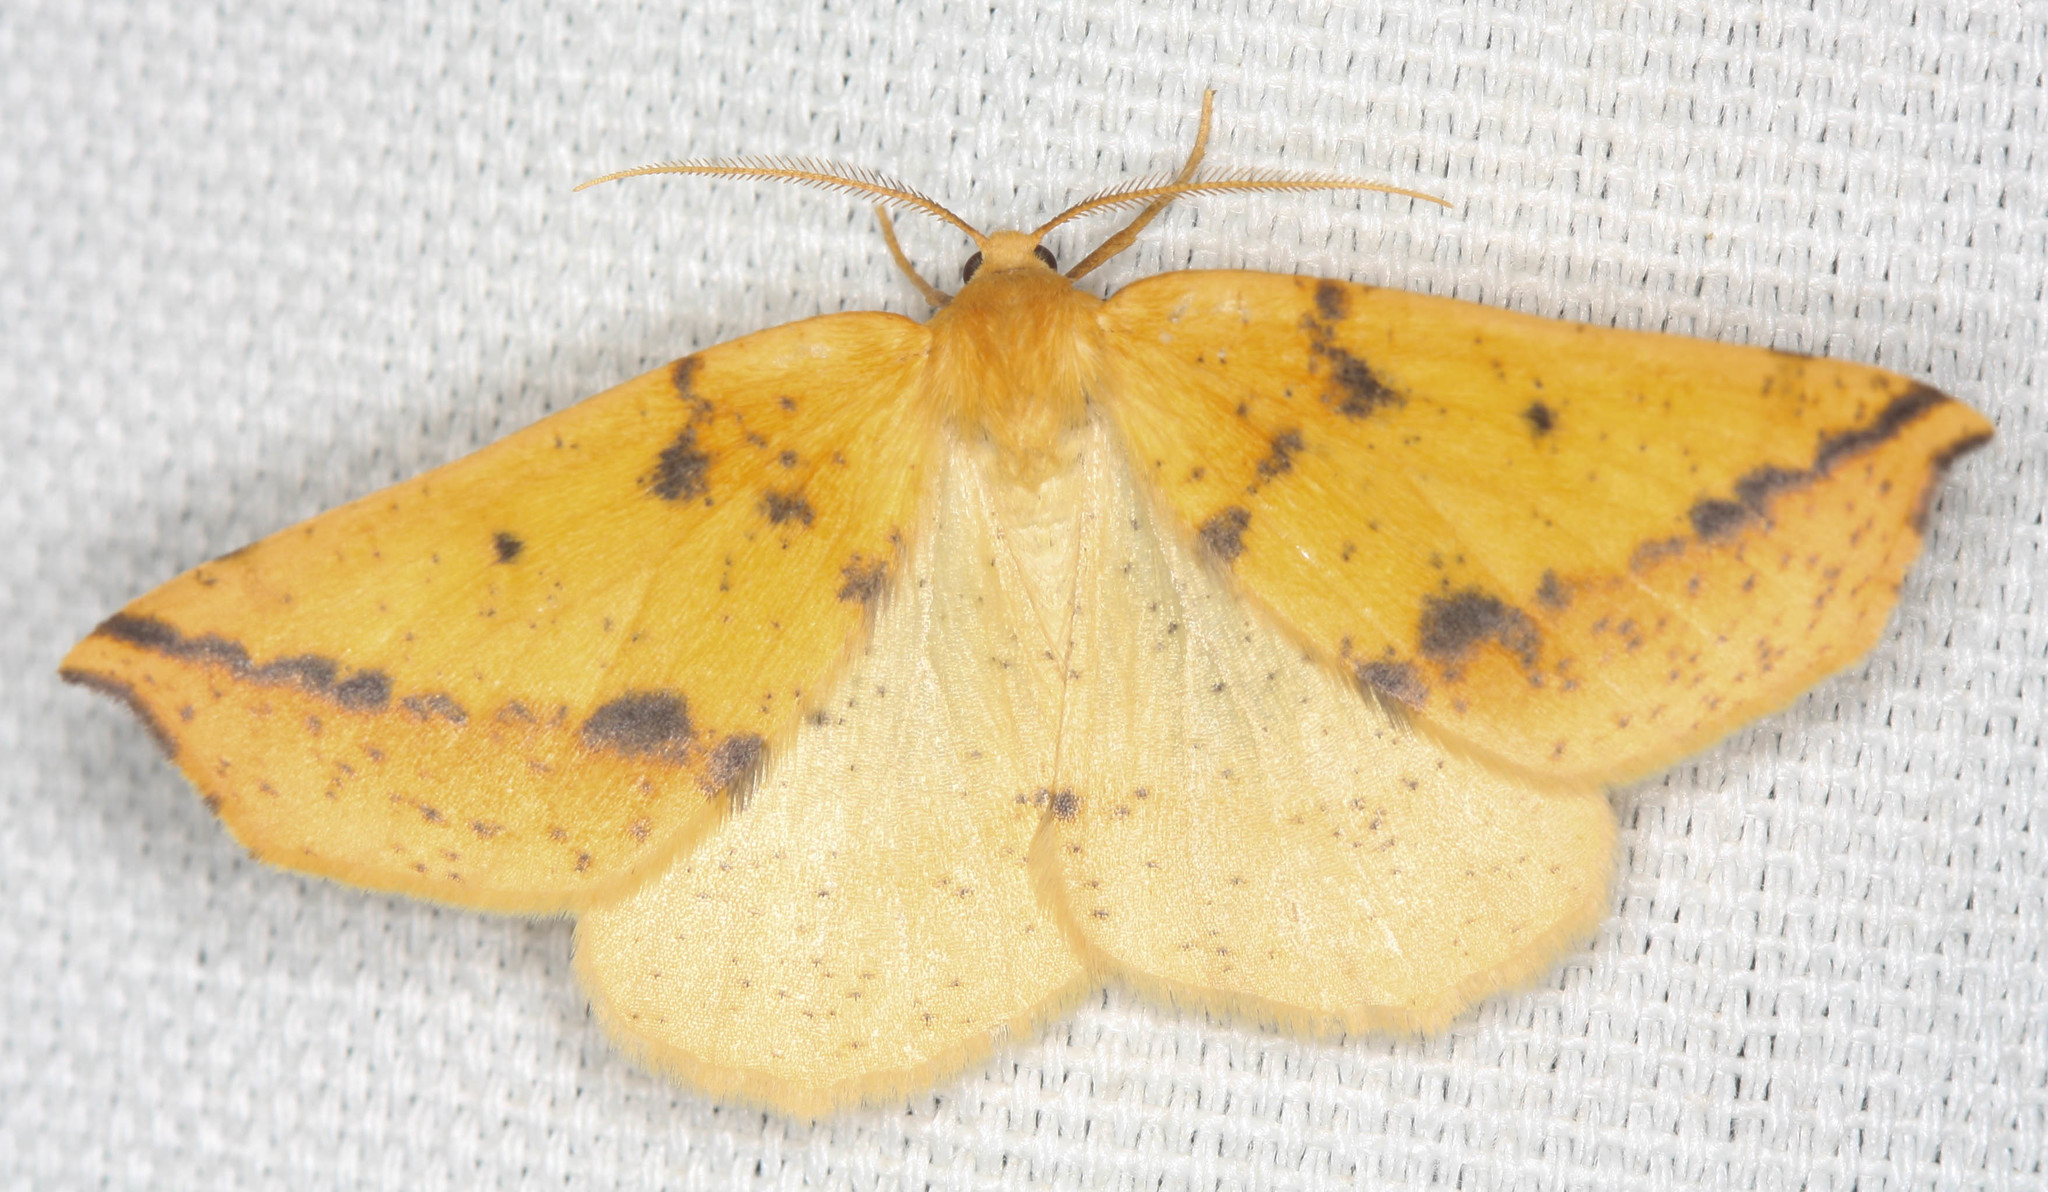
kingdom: Animalia
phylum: Arthropoda
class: Insecta
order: Lepidoptera
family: Geometridae
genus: Neoterpes
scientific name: Neoterpes edwardsata
